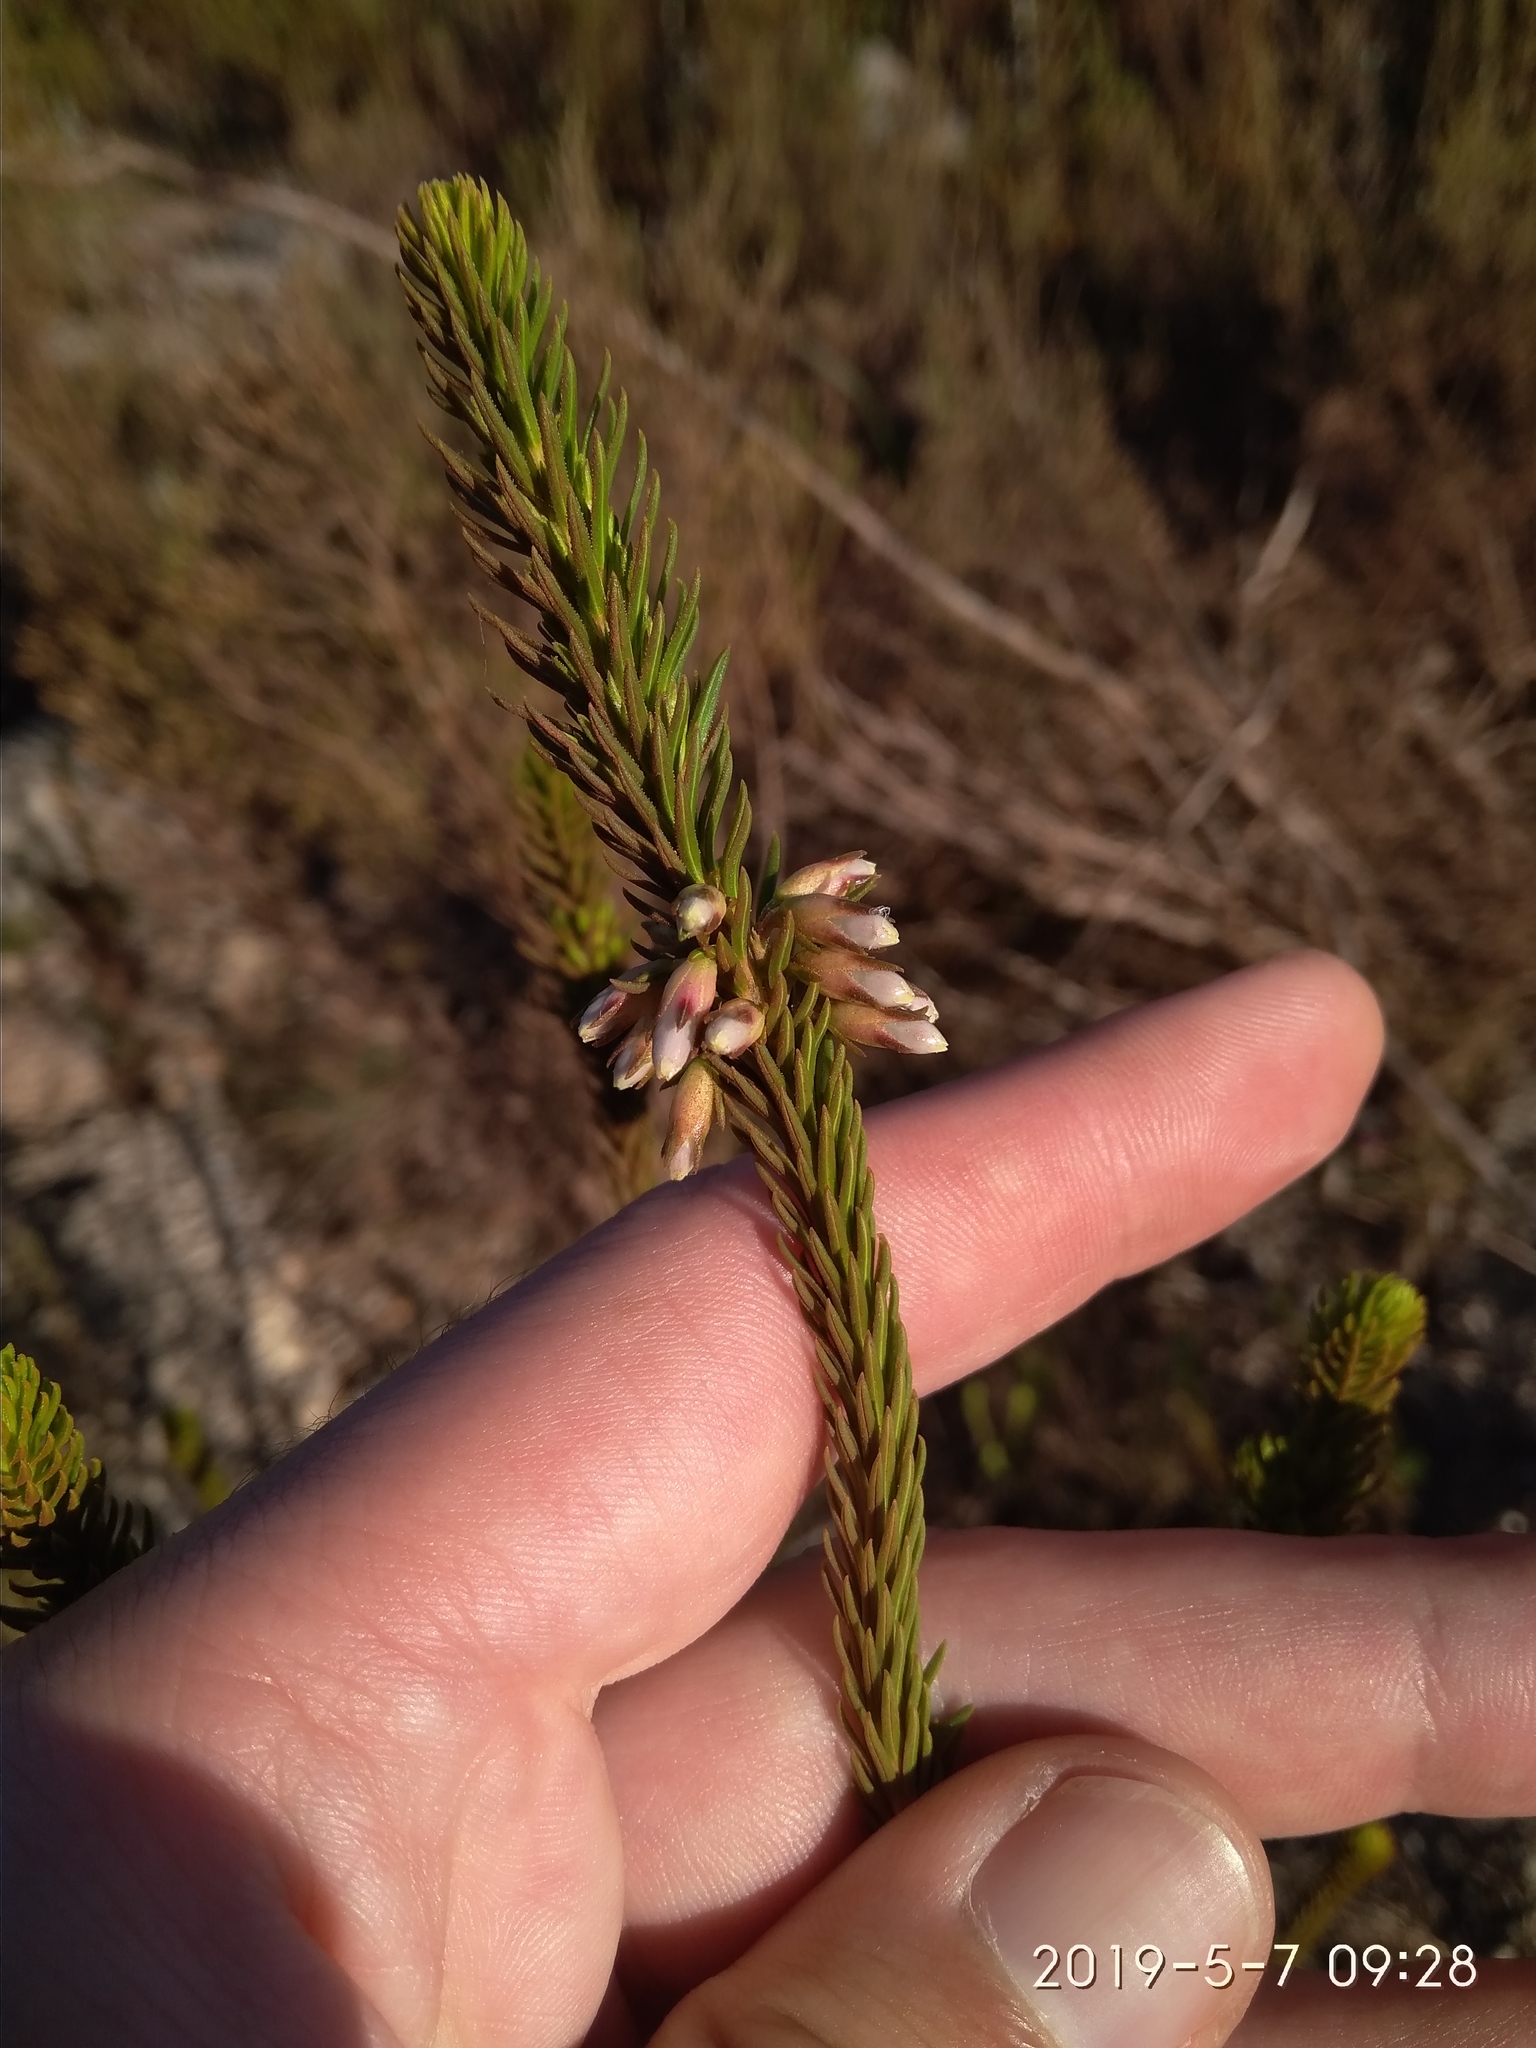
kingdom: Plantae
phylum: Tracheophyta
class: Magnoliopsida
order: Ericales
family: Ericaceae
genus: Erica
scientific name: Erica regia
